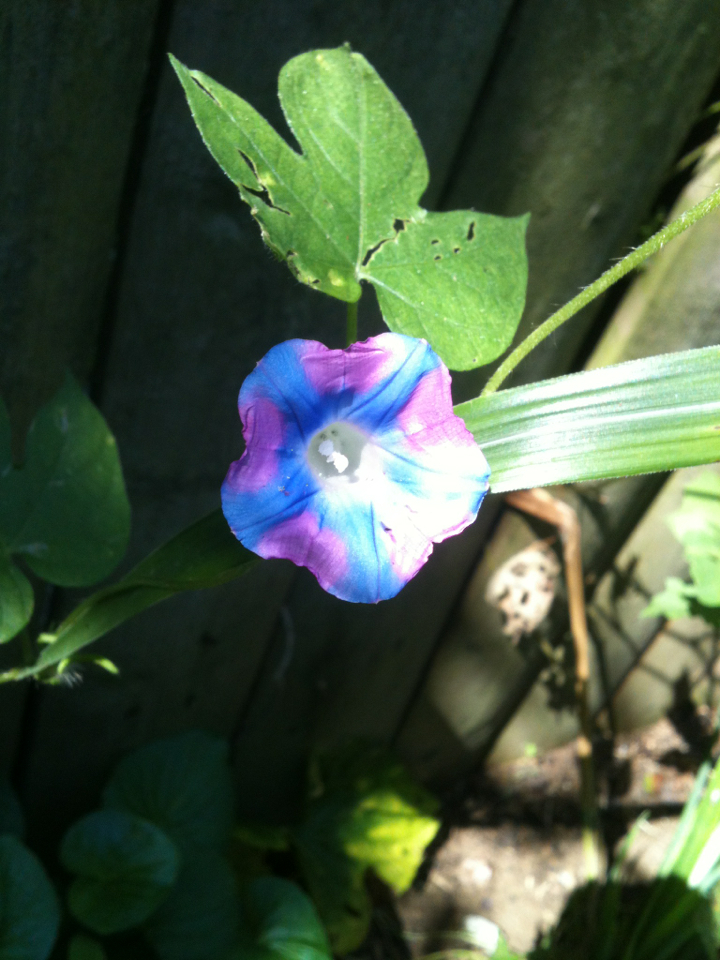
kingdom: Plantae
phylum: Tracheophyta
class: Magnoliopsida
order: Solanales
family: Convolvulaceae
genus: Ipomoea
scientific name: Ipomoea hederacea
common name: Ivy-leaved morning-glory
